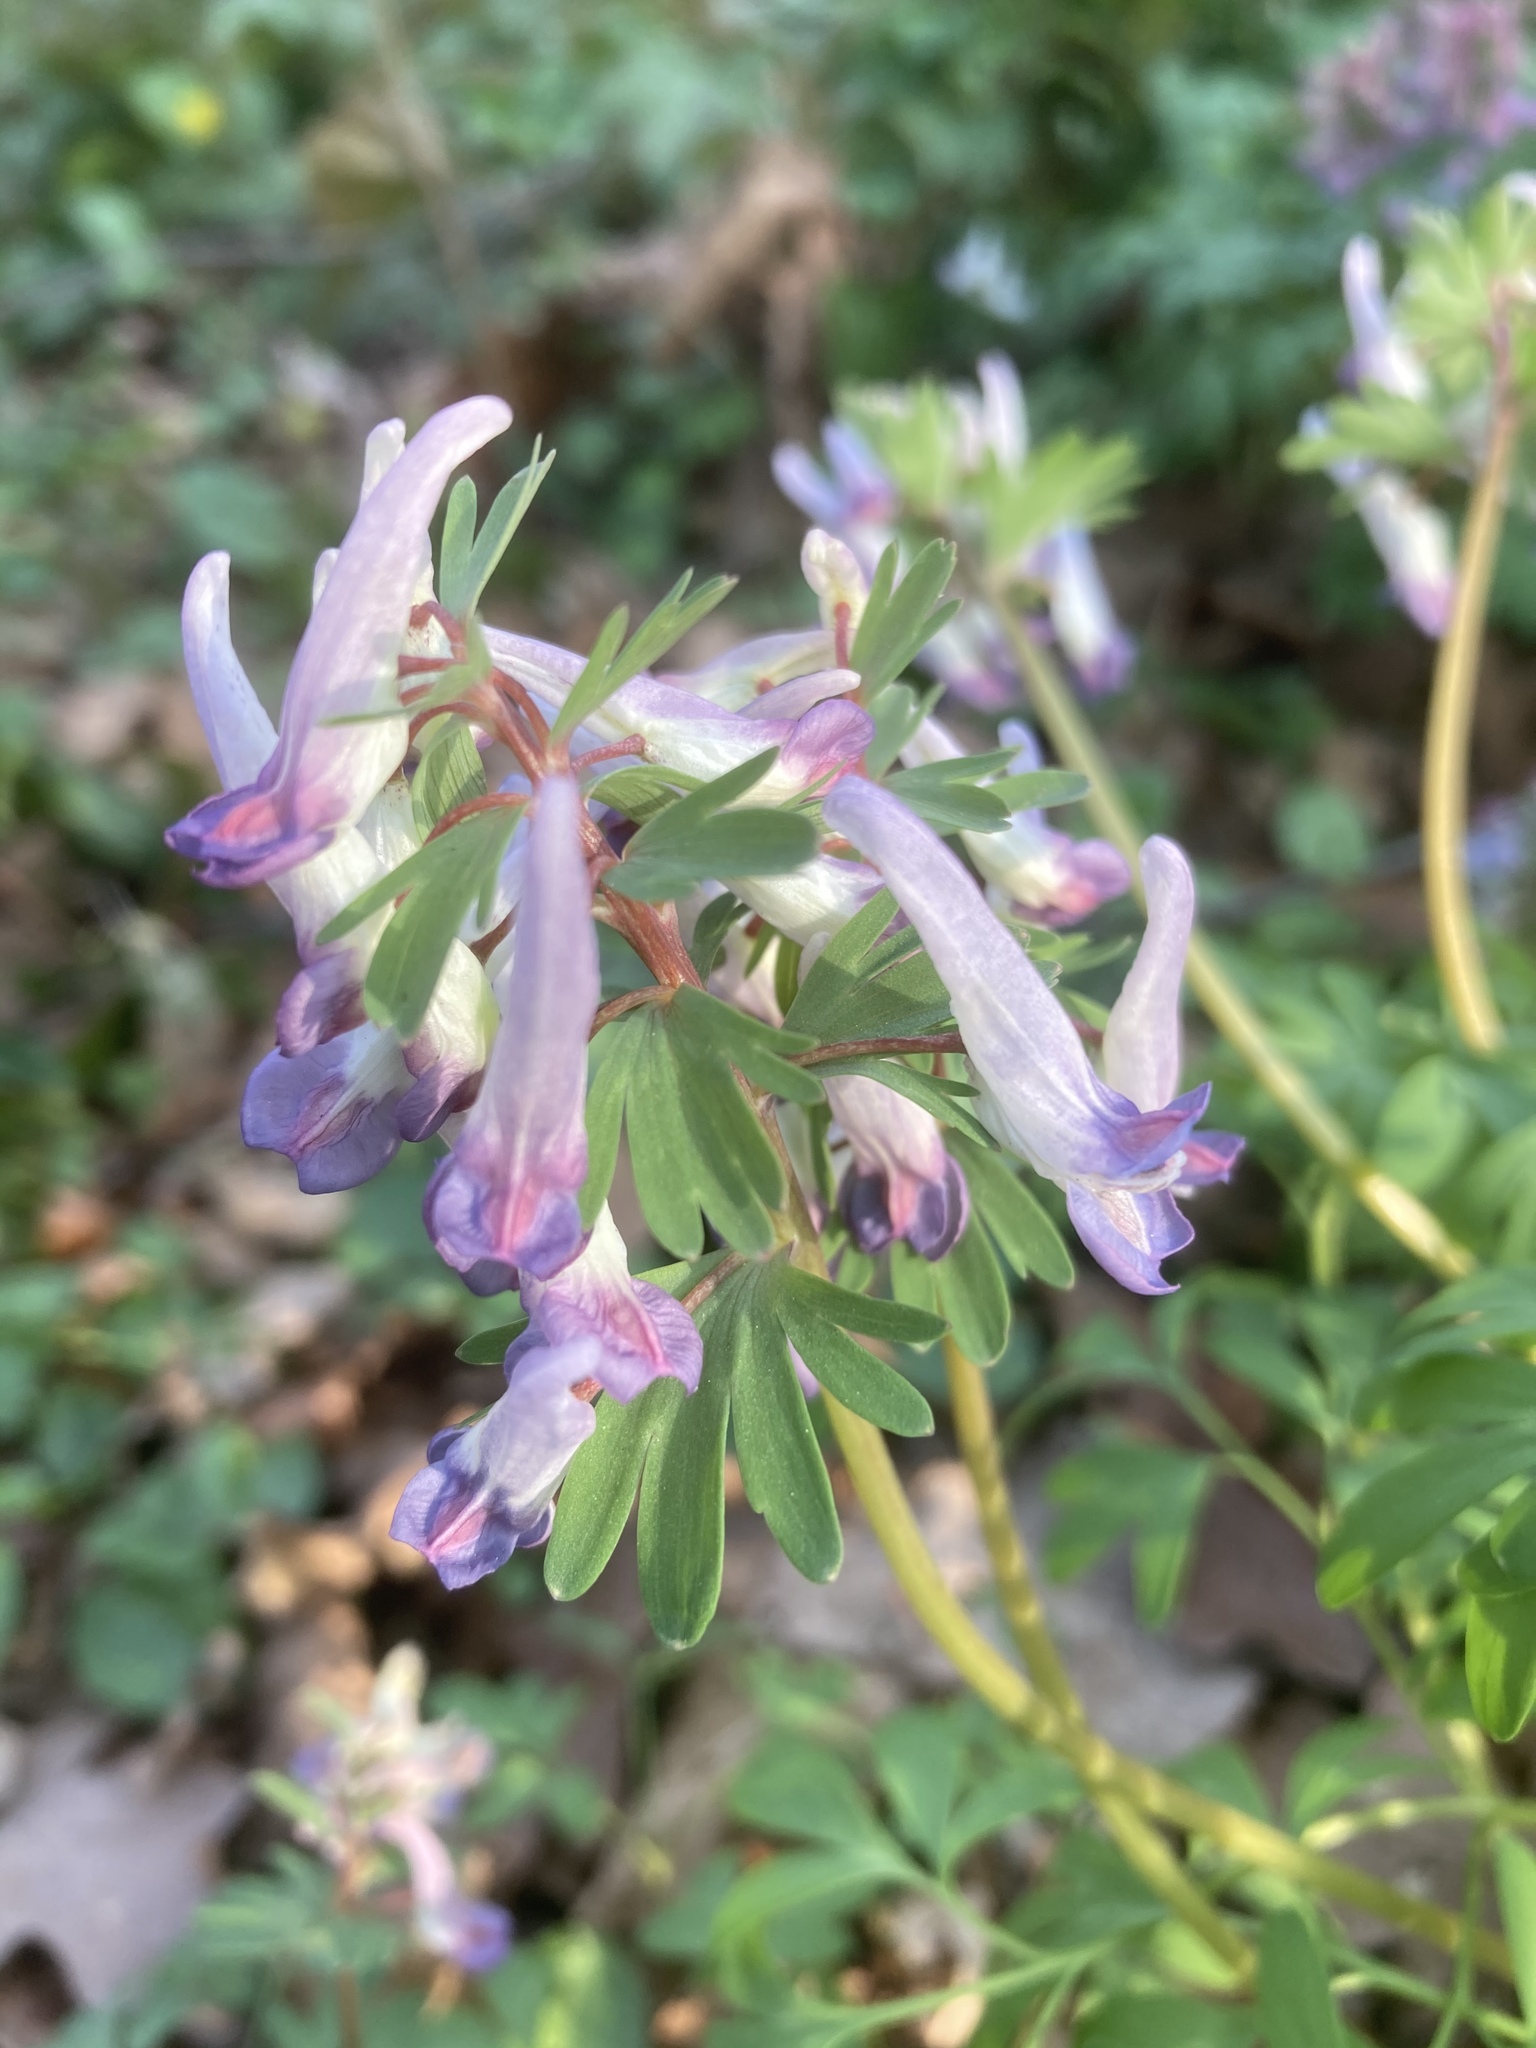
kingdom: Plantae
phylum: Tracheophyta
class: Magnoliopsida
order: Ranunculales
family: Papaveraceae
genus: Corydalis
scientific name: Corydalis solida
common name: Bird-in-a-bush
